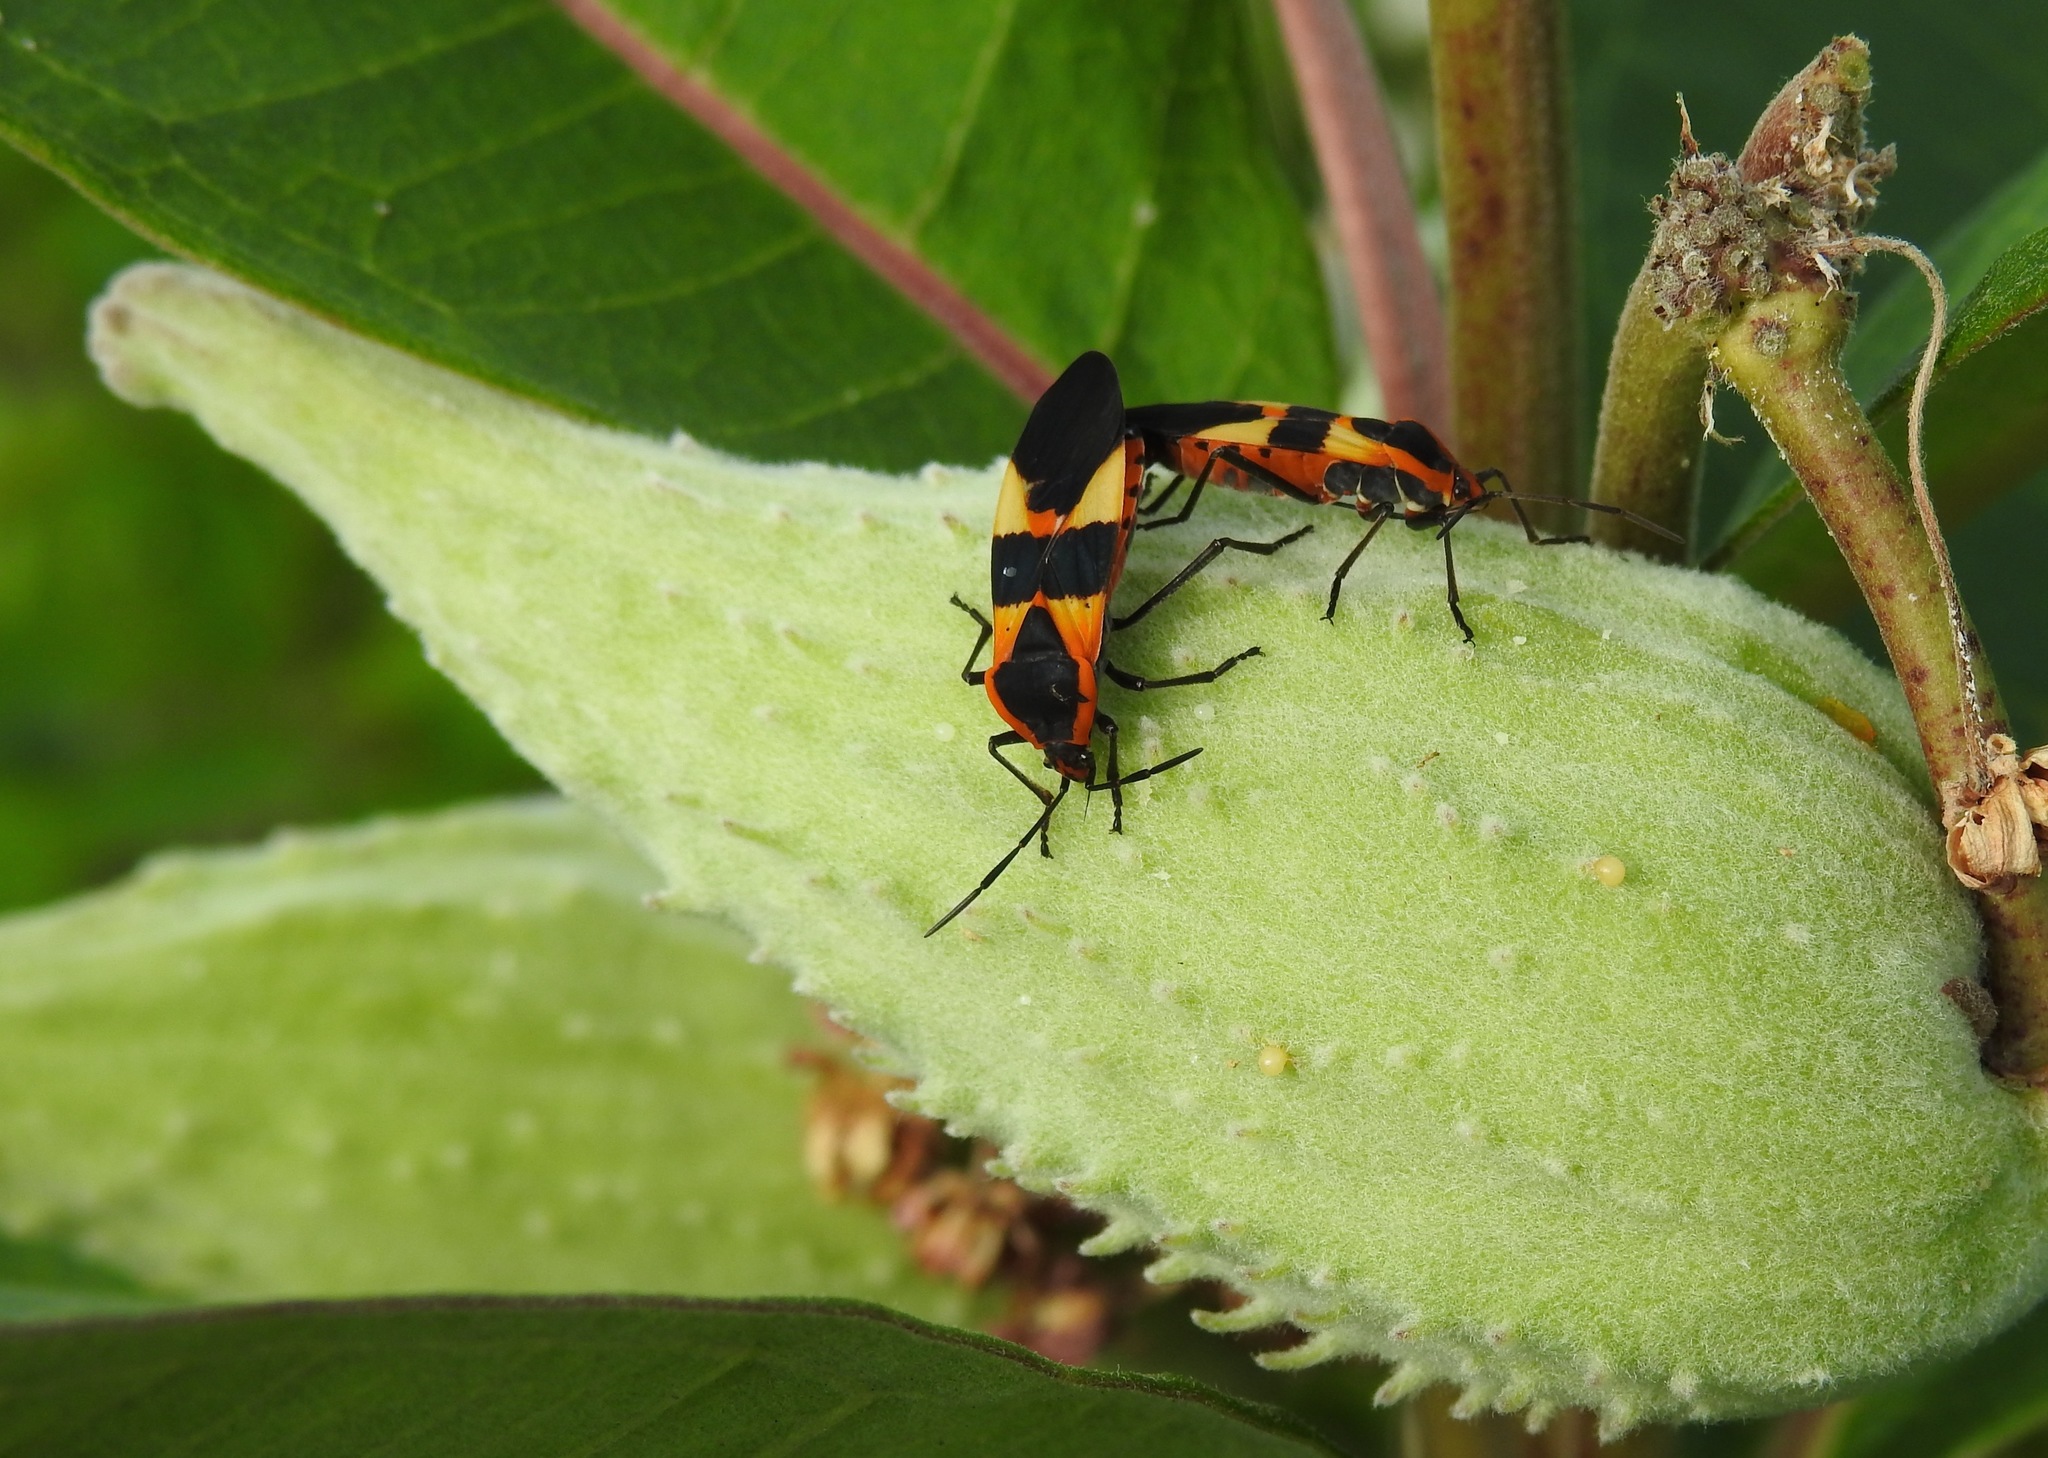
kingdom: Animalia
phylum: Arthropoda
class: Insecta
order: Hemiptera
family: Lygaeidae
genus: Oncopeltus
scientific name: Oncopeltus fasciatus
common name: Large milkweed bug
